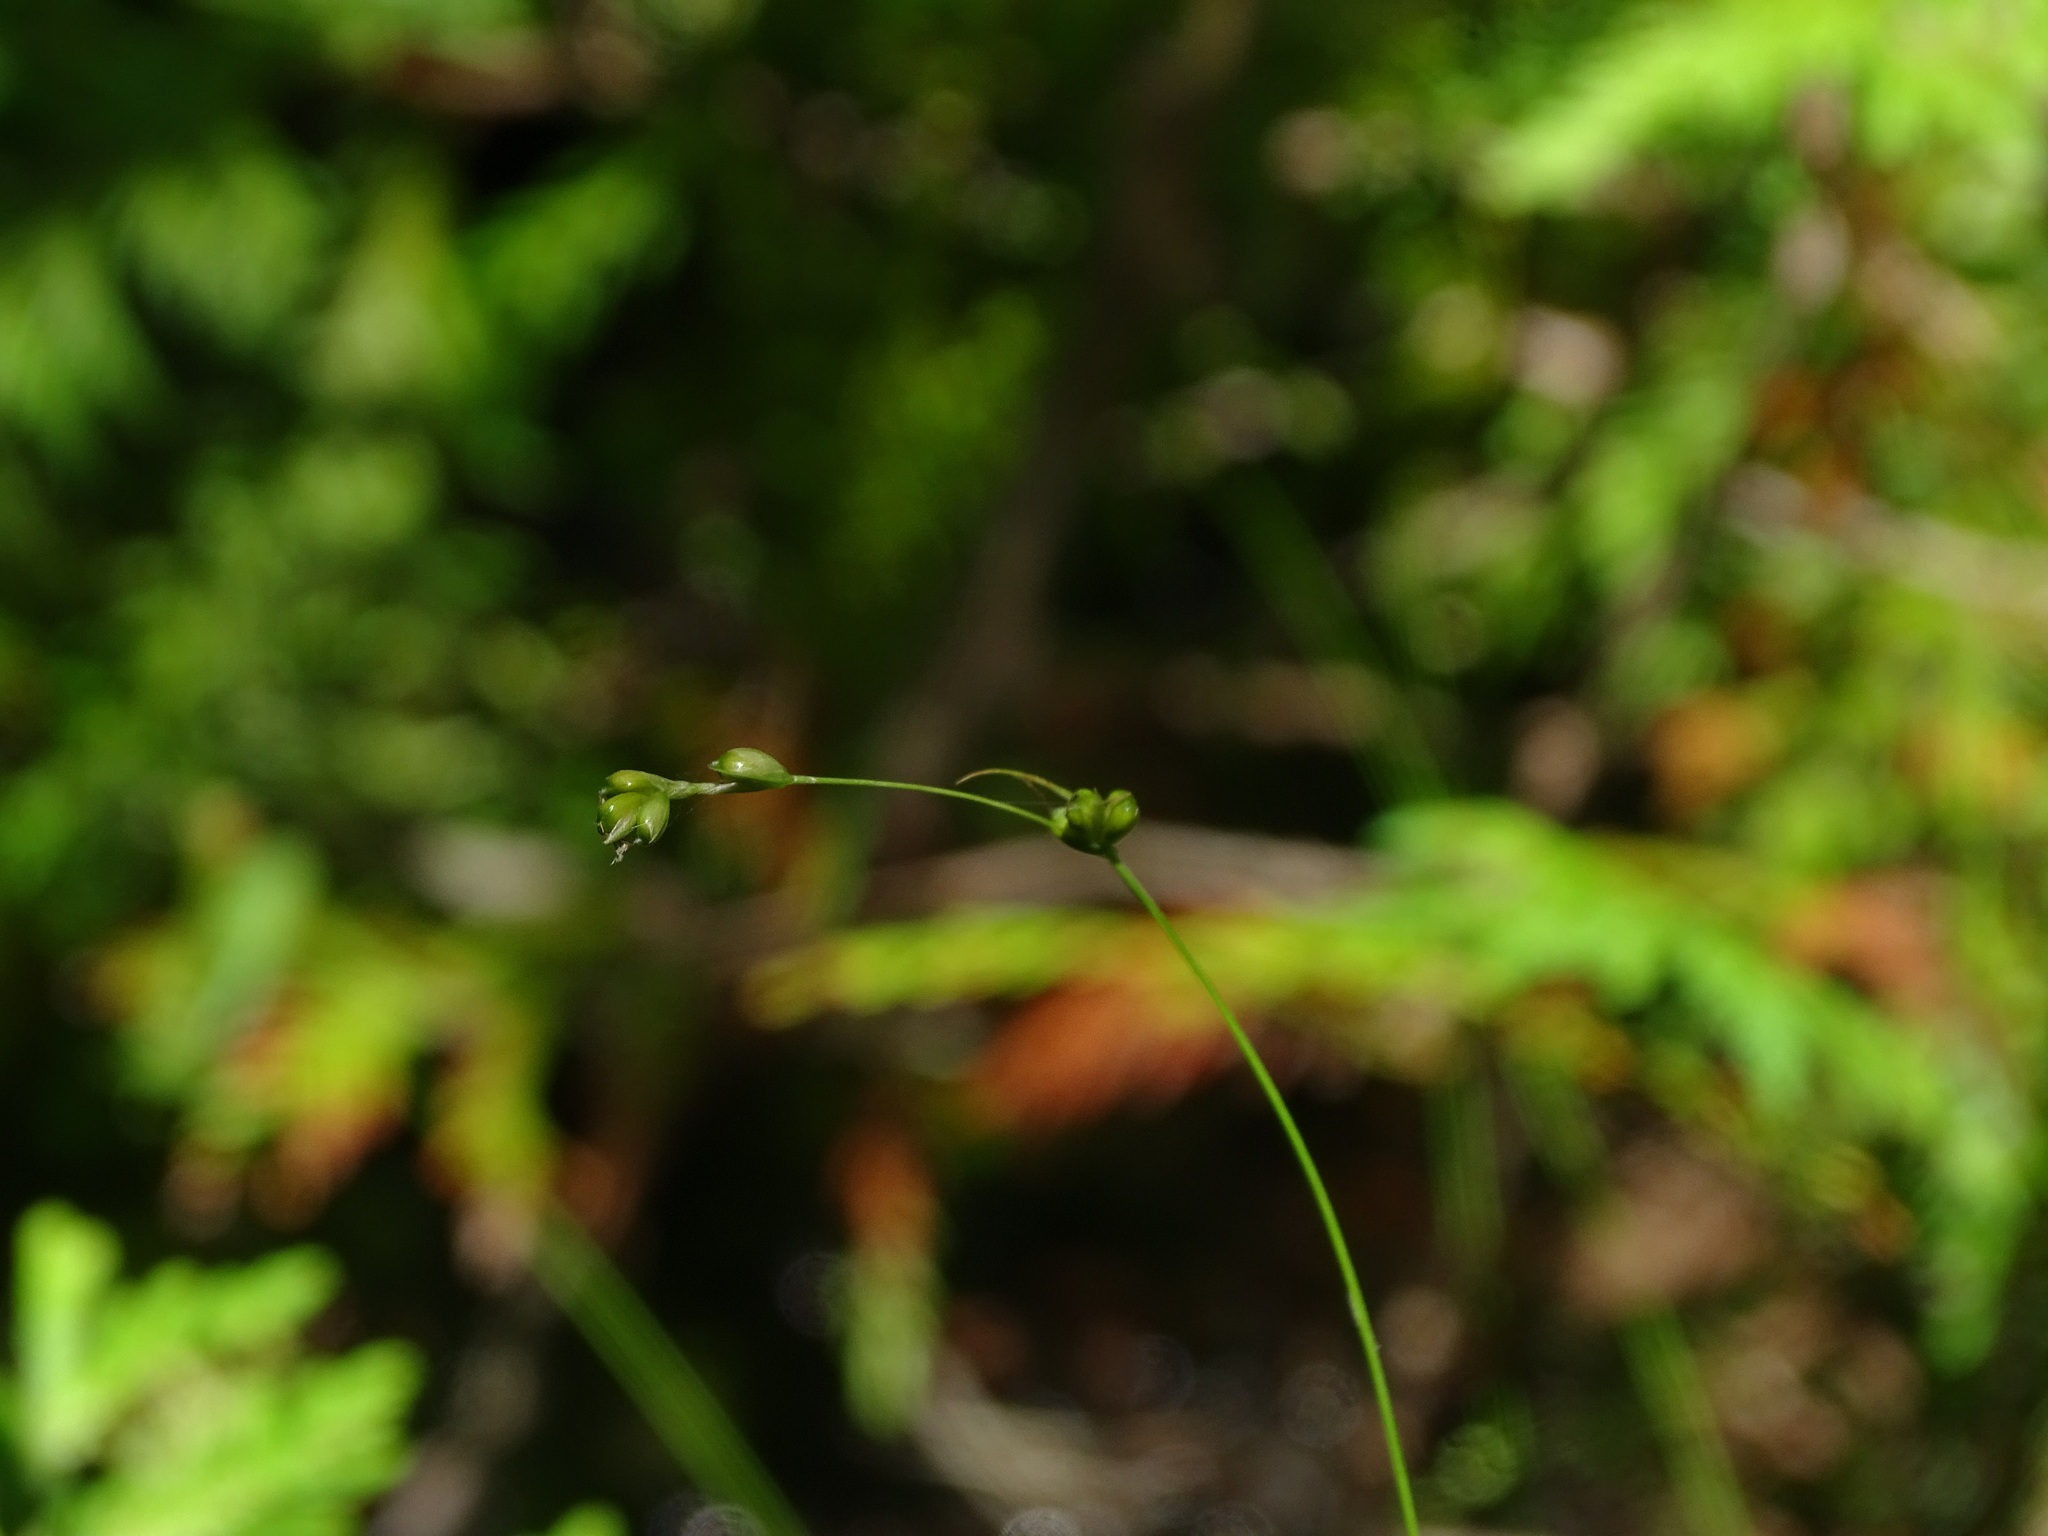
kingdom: Plantae
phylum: Tracheophyta
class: Liliopsida
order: Poales
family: Cyperaceae
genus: Carex
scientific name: Carex disperma
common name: Short-leaved sedge
